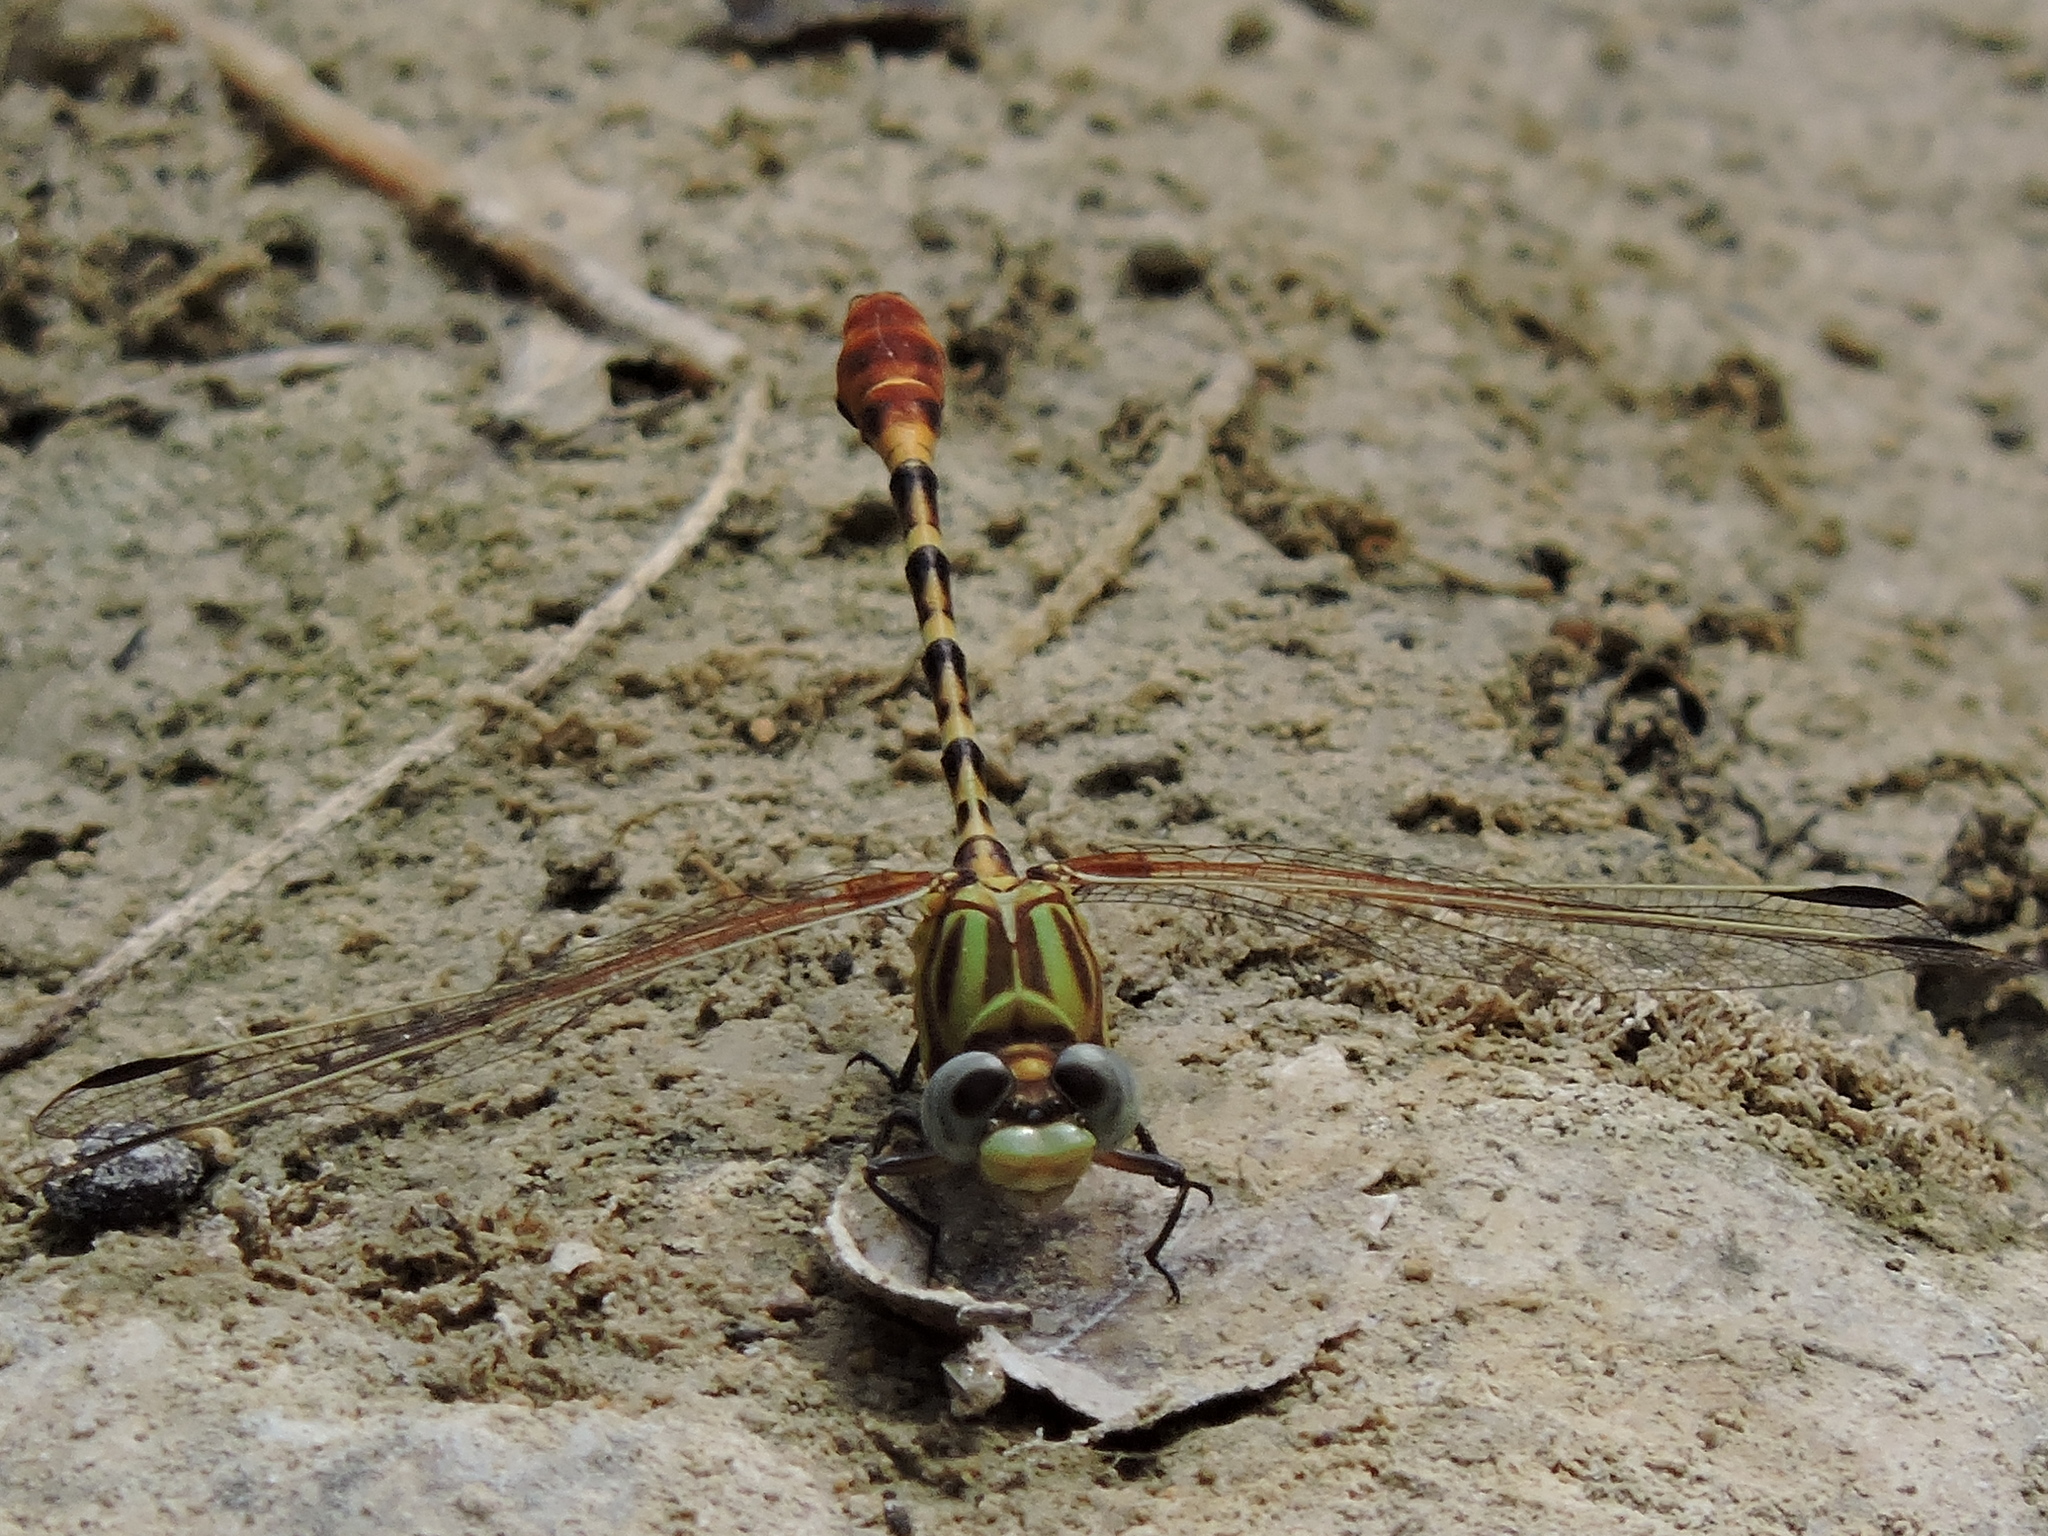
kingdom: Animalia
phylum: Arthropoda
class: Insecta
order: Odonata
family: Gomphidae
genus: Erpetogomphus
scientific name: Erpetogomphus designatus
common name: Eastern ringtail
